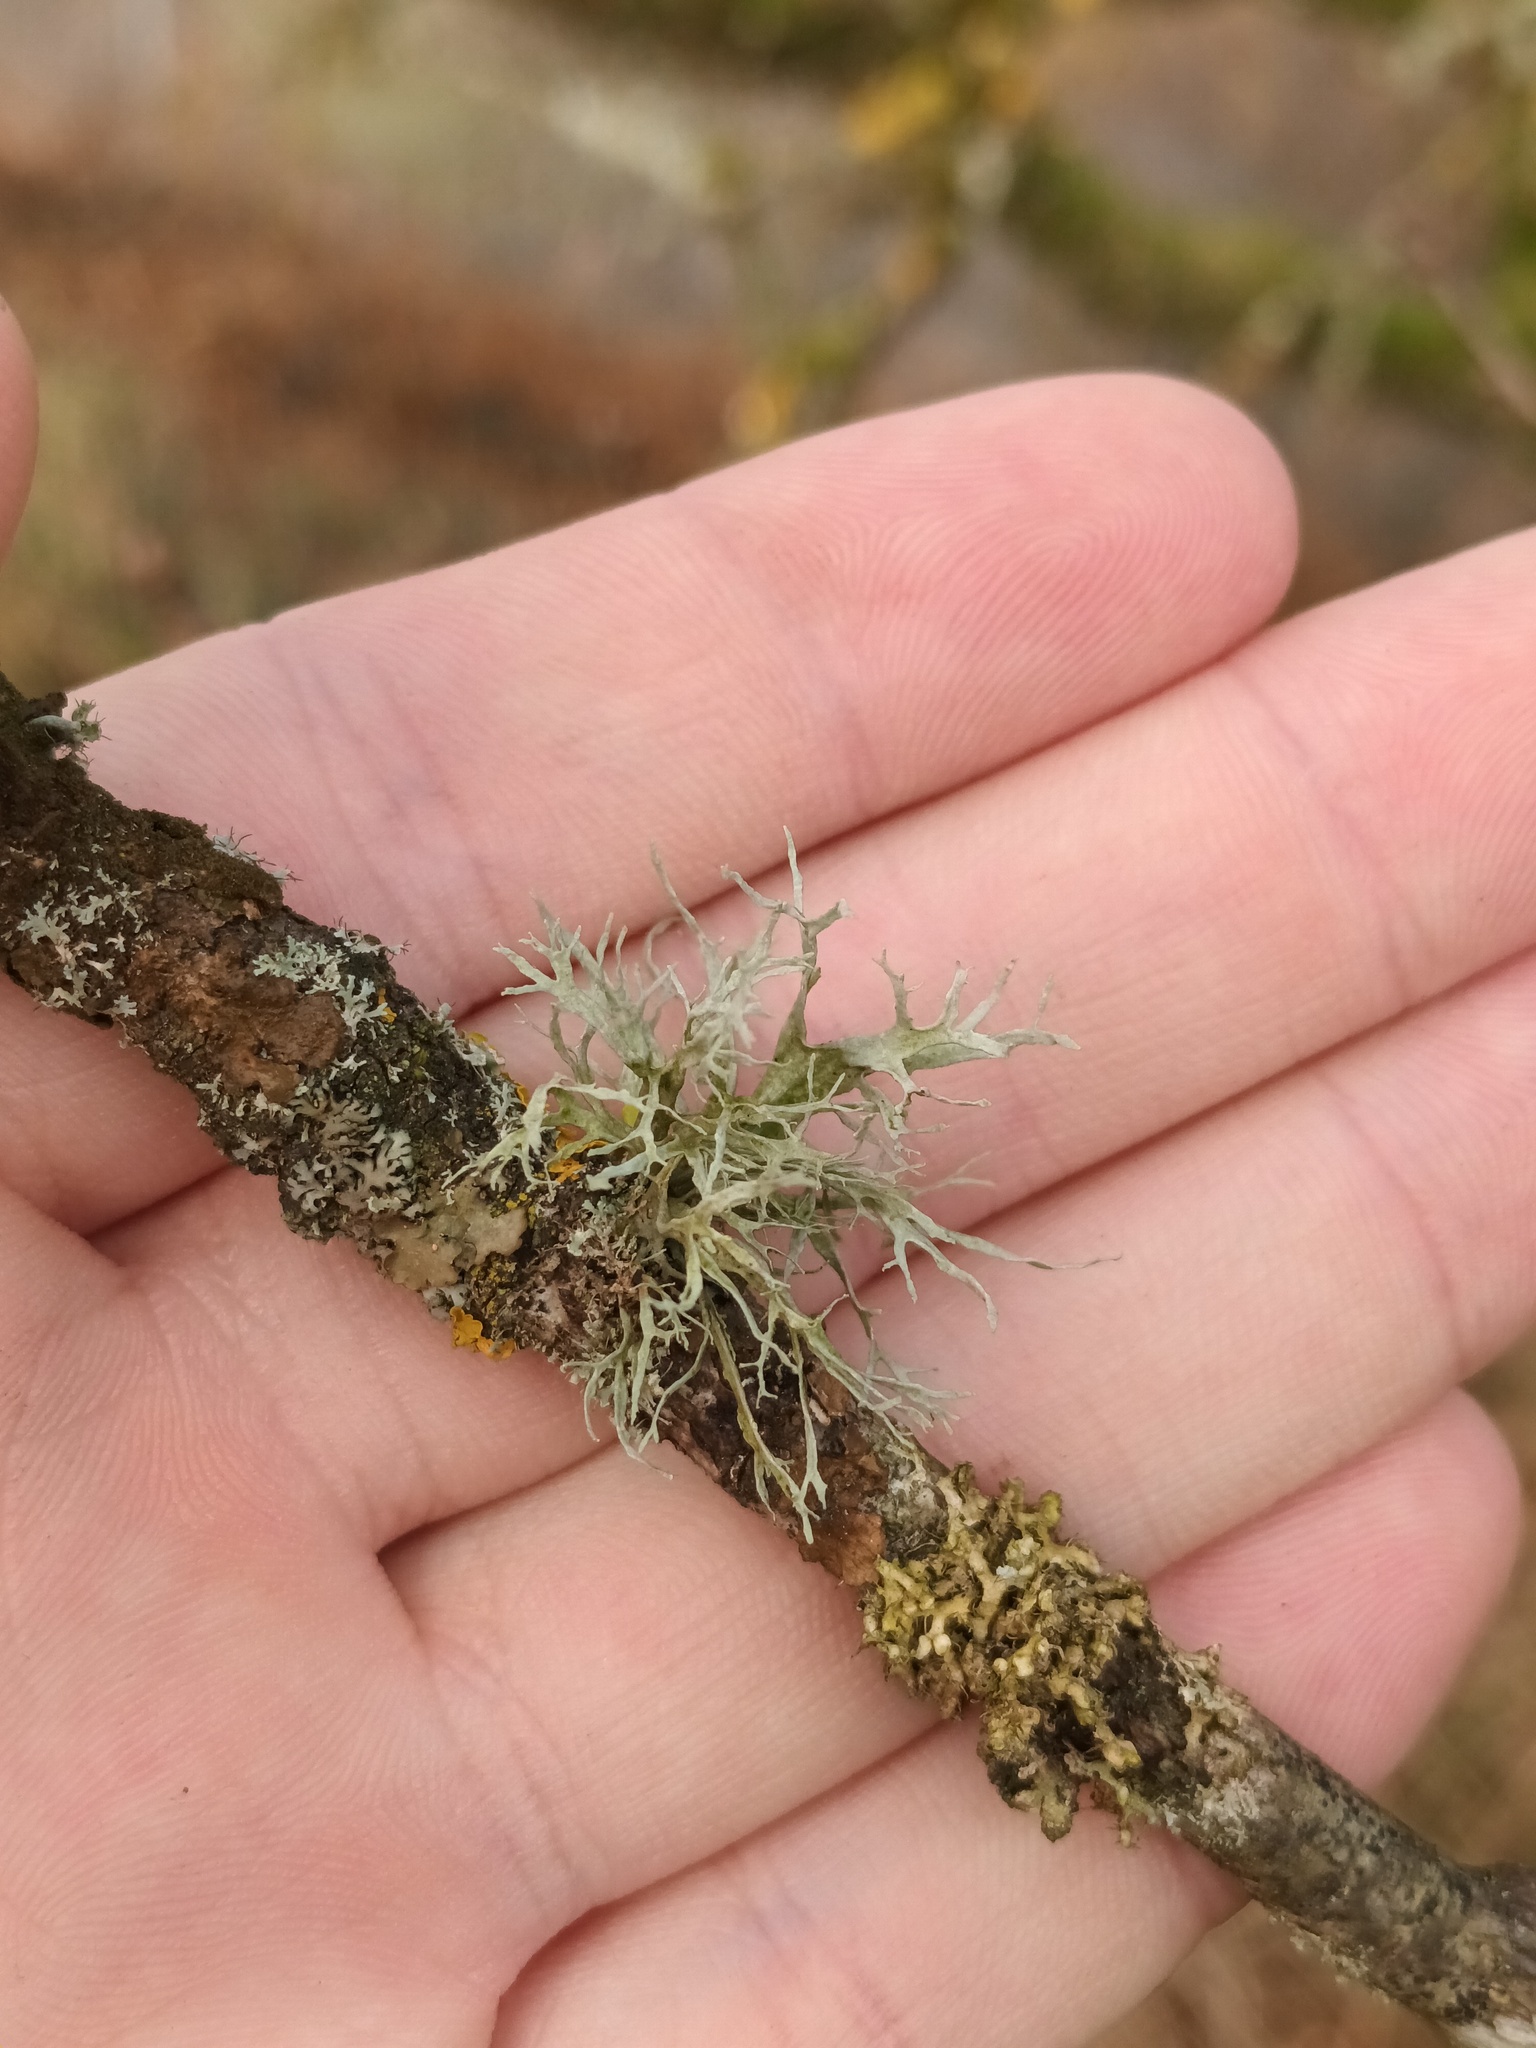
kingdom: Fungi
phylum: Ascomycota
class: Lecanoromycetes
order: Lecanorales
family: Ramalinaceae
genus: Ramalina
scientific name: Ramalina farinacea
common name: Farinose cartilage lichen
